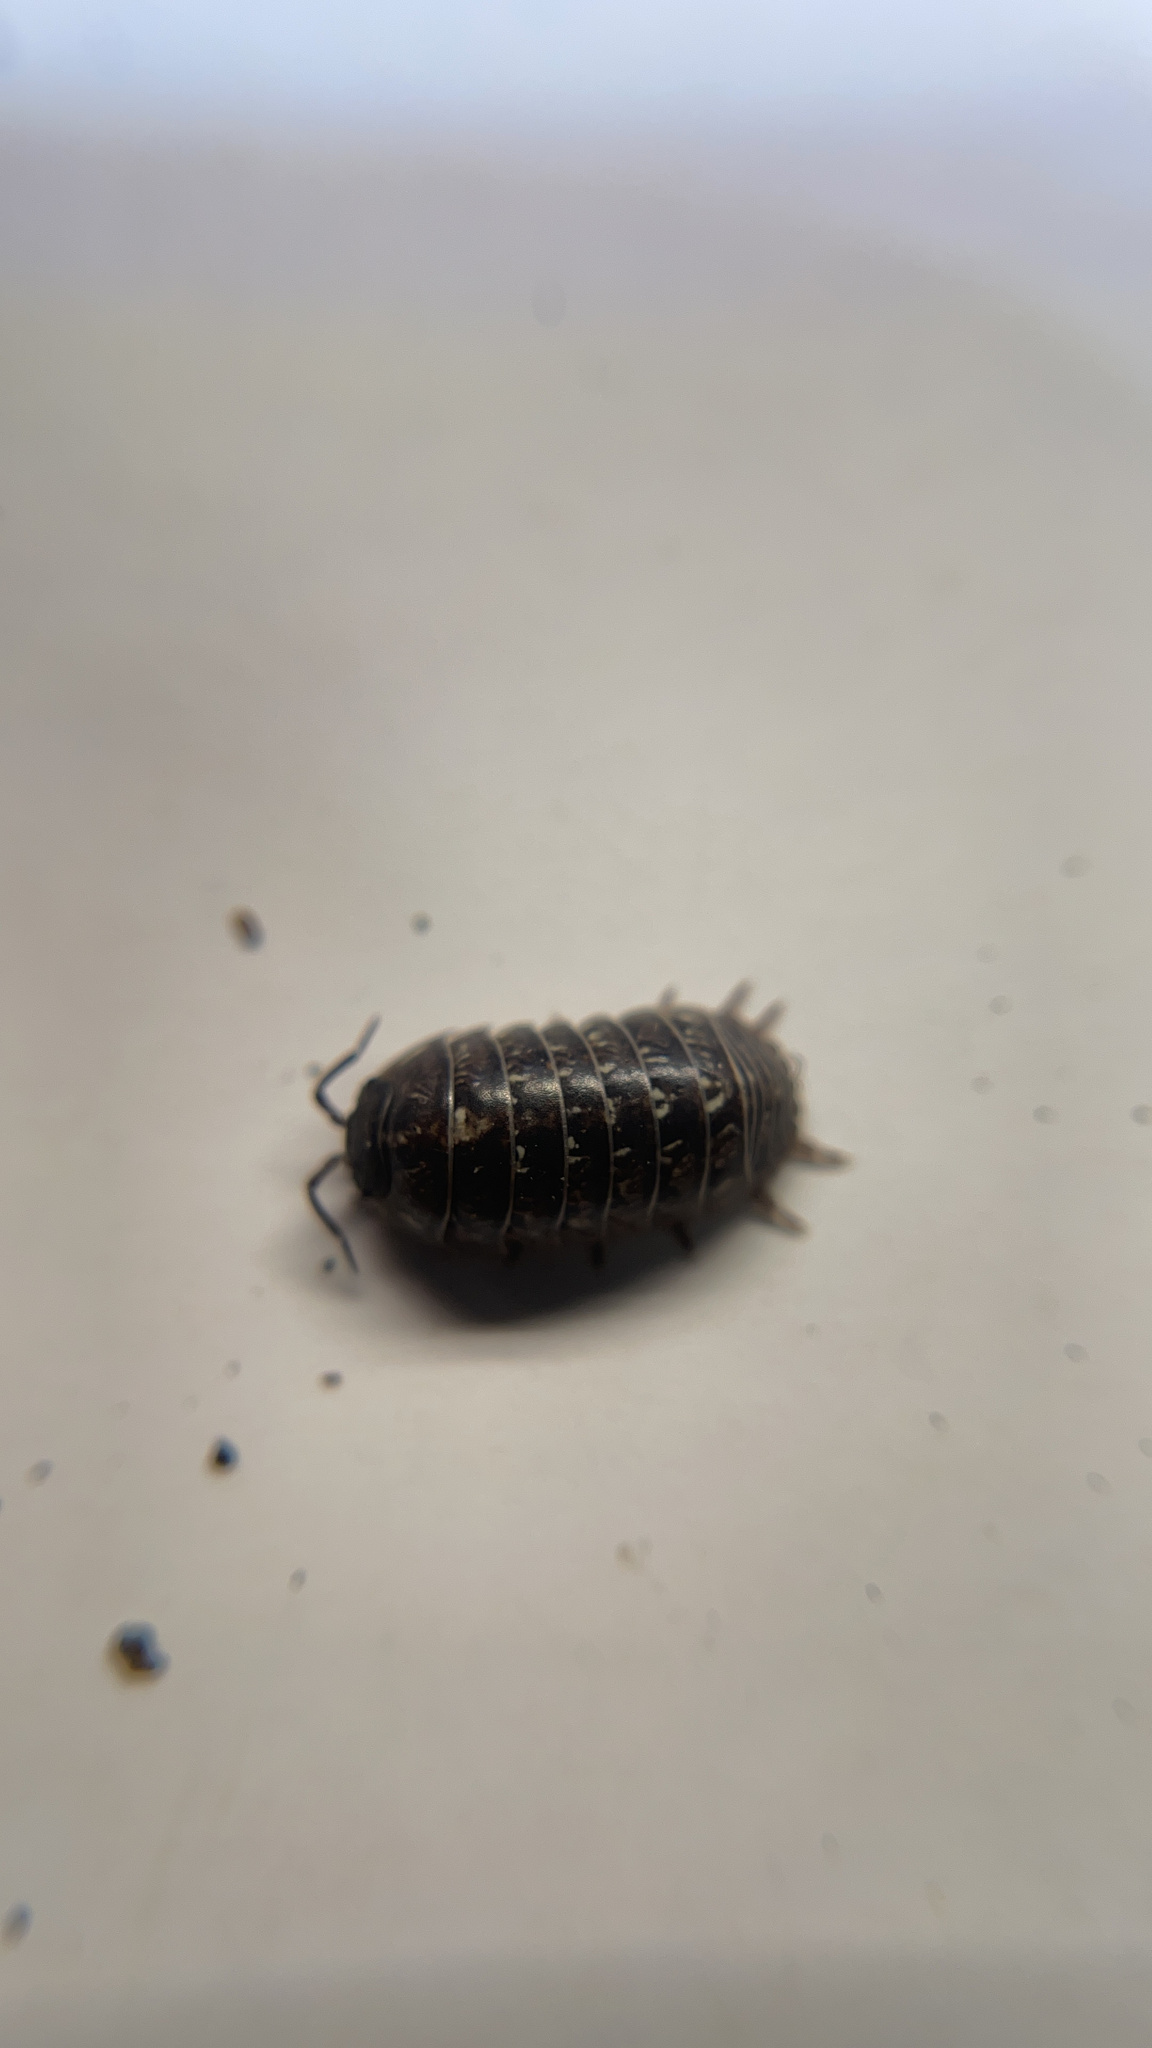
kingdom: Animalia
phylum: Arthropoda
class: Malacostraca
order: Isopoda
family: Armadillidiidae
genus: Armadillidium
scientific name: Armadillidium vulgare
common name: Common pill woodlouse
